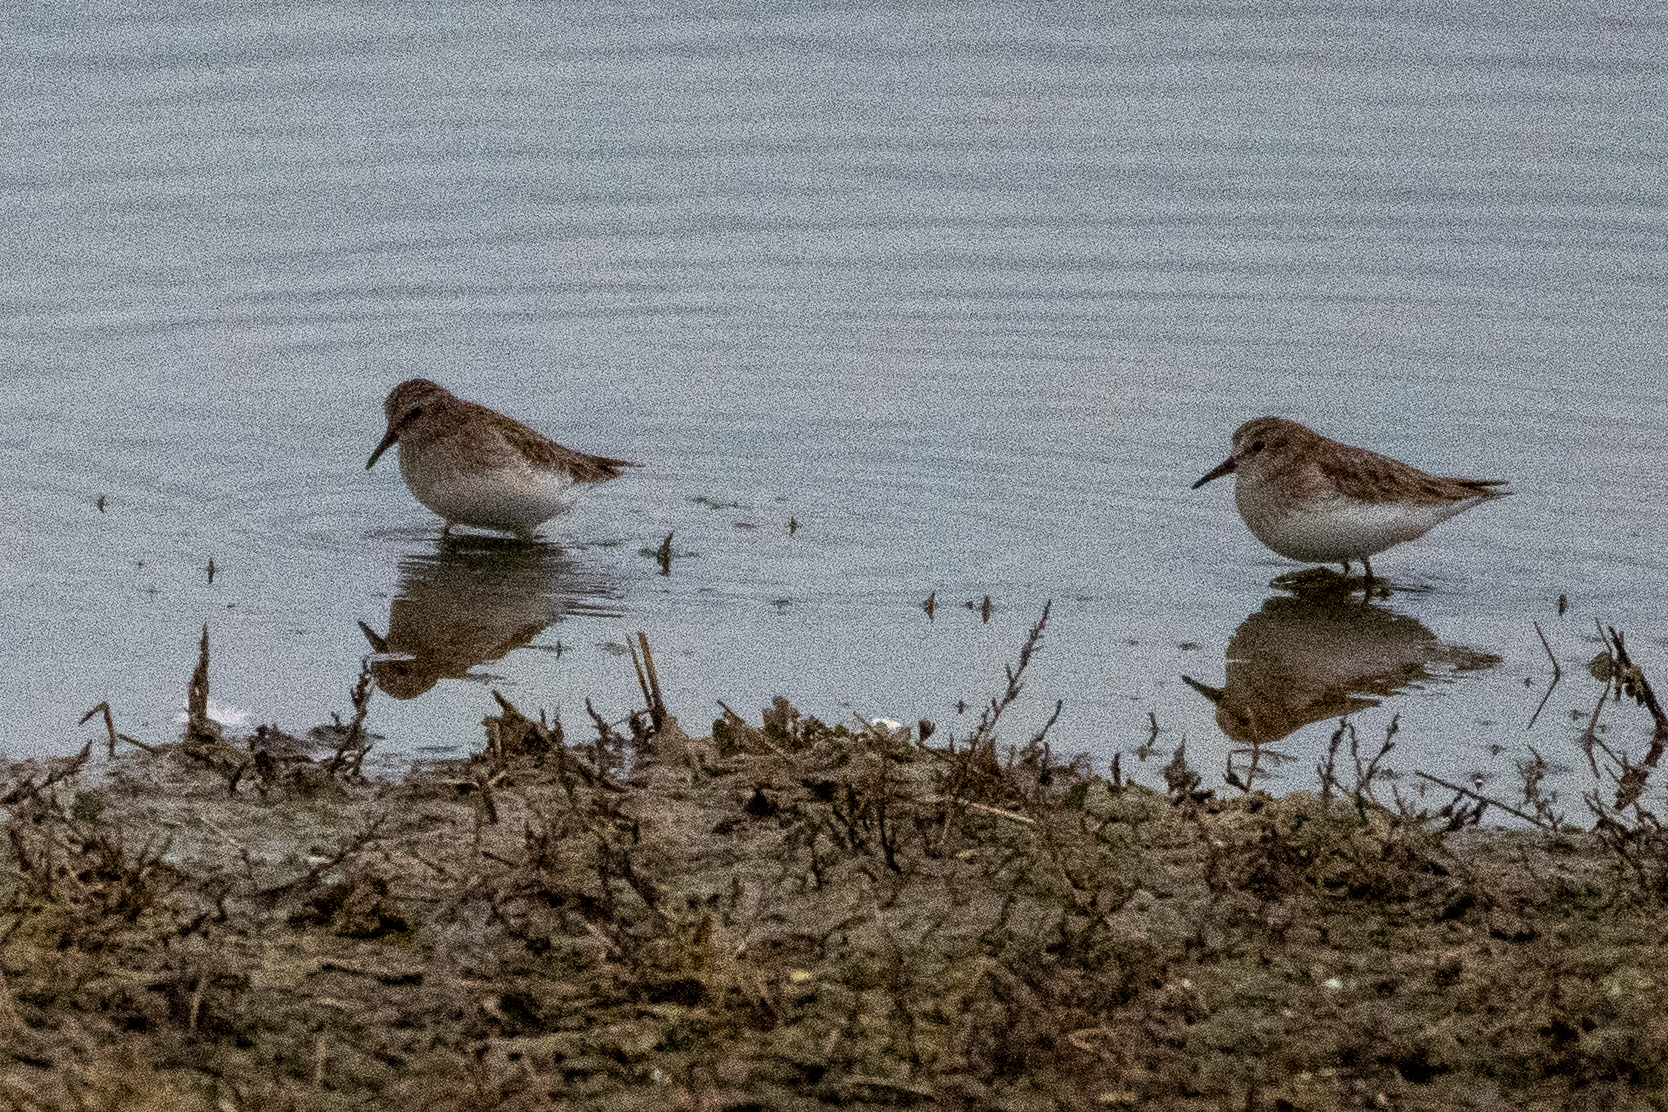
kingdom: Animalia
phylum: Chordata
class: Aves
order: Charadriiformes
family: Scolopacidae
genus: Calidris
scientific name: Calidris minutilla
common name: Least sandpiper
